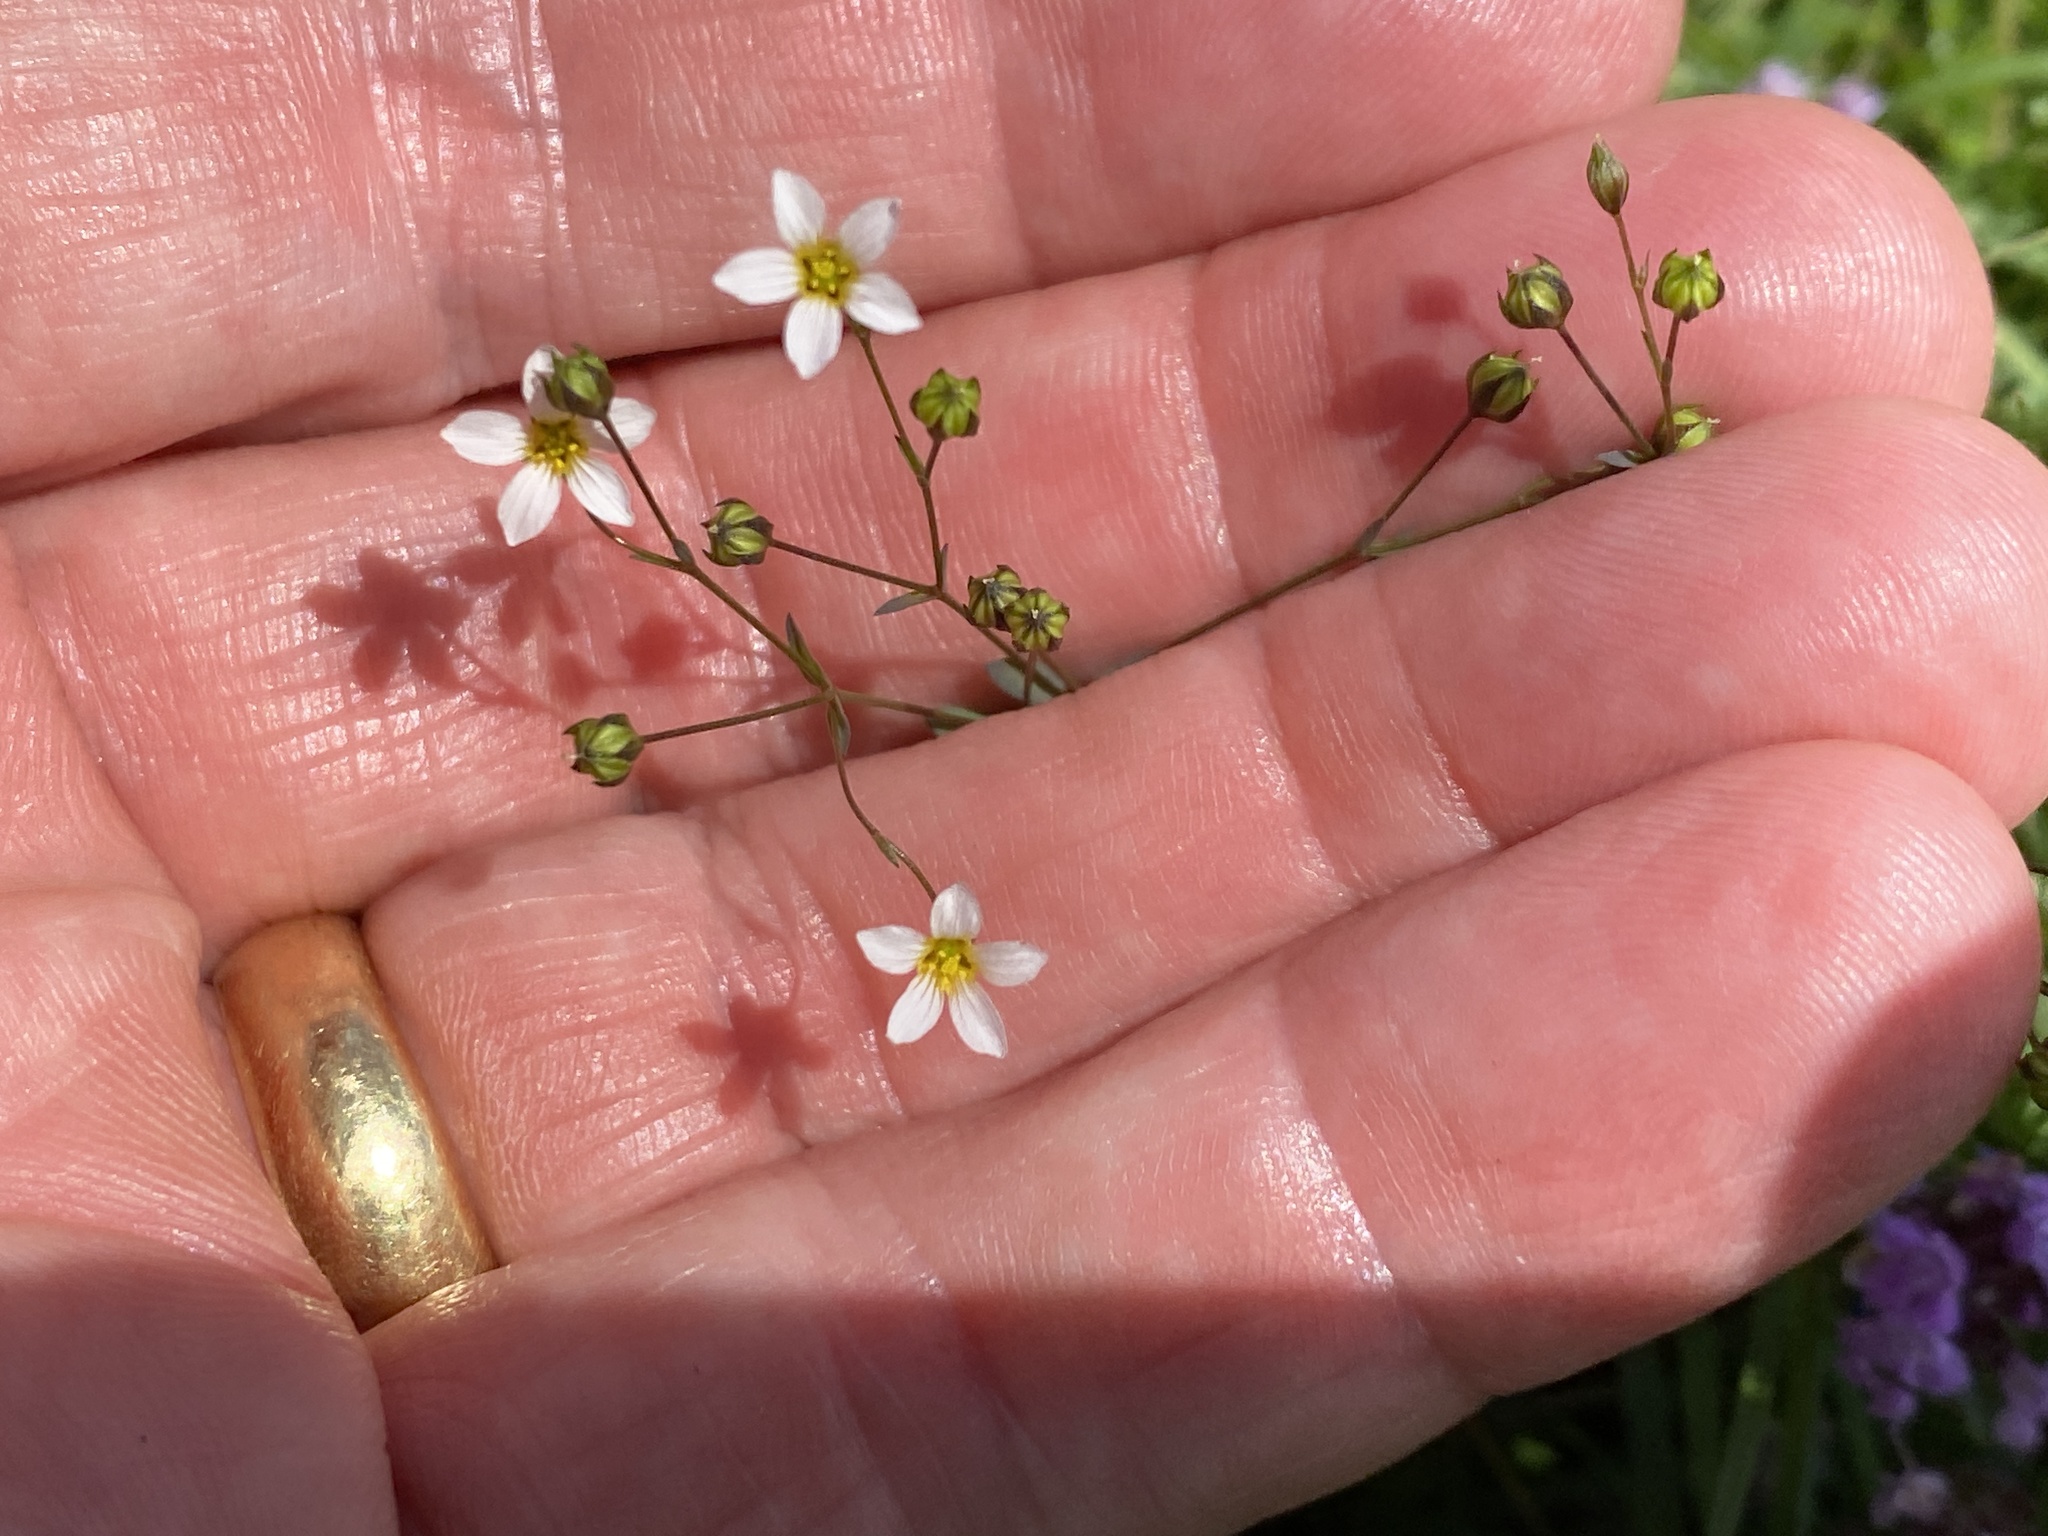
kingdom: Plantae
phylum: Tracheophyta
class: Magnoliopsida
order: Malpighiales
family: Linaceae
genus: Linum
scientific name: Linum catharticum
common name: Fairy flax
